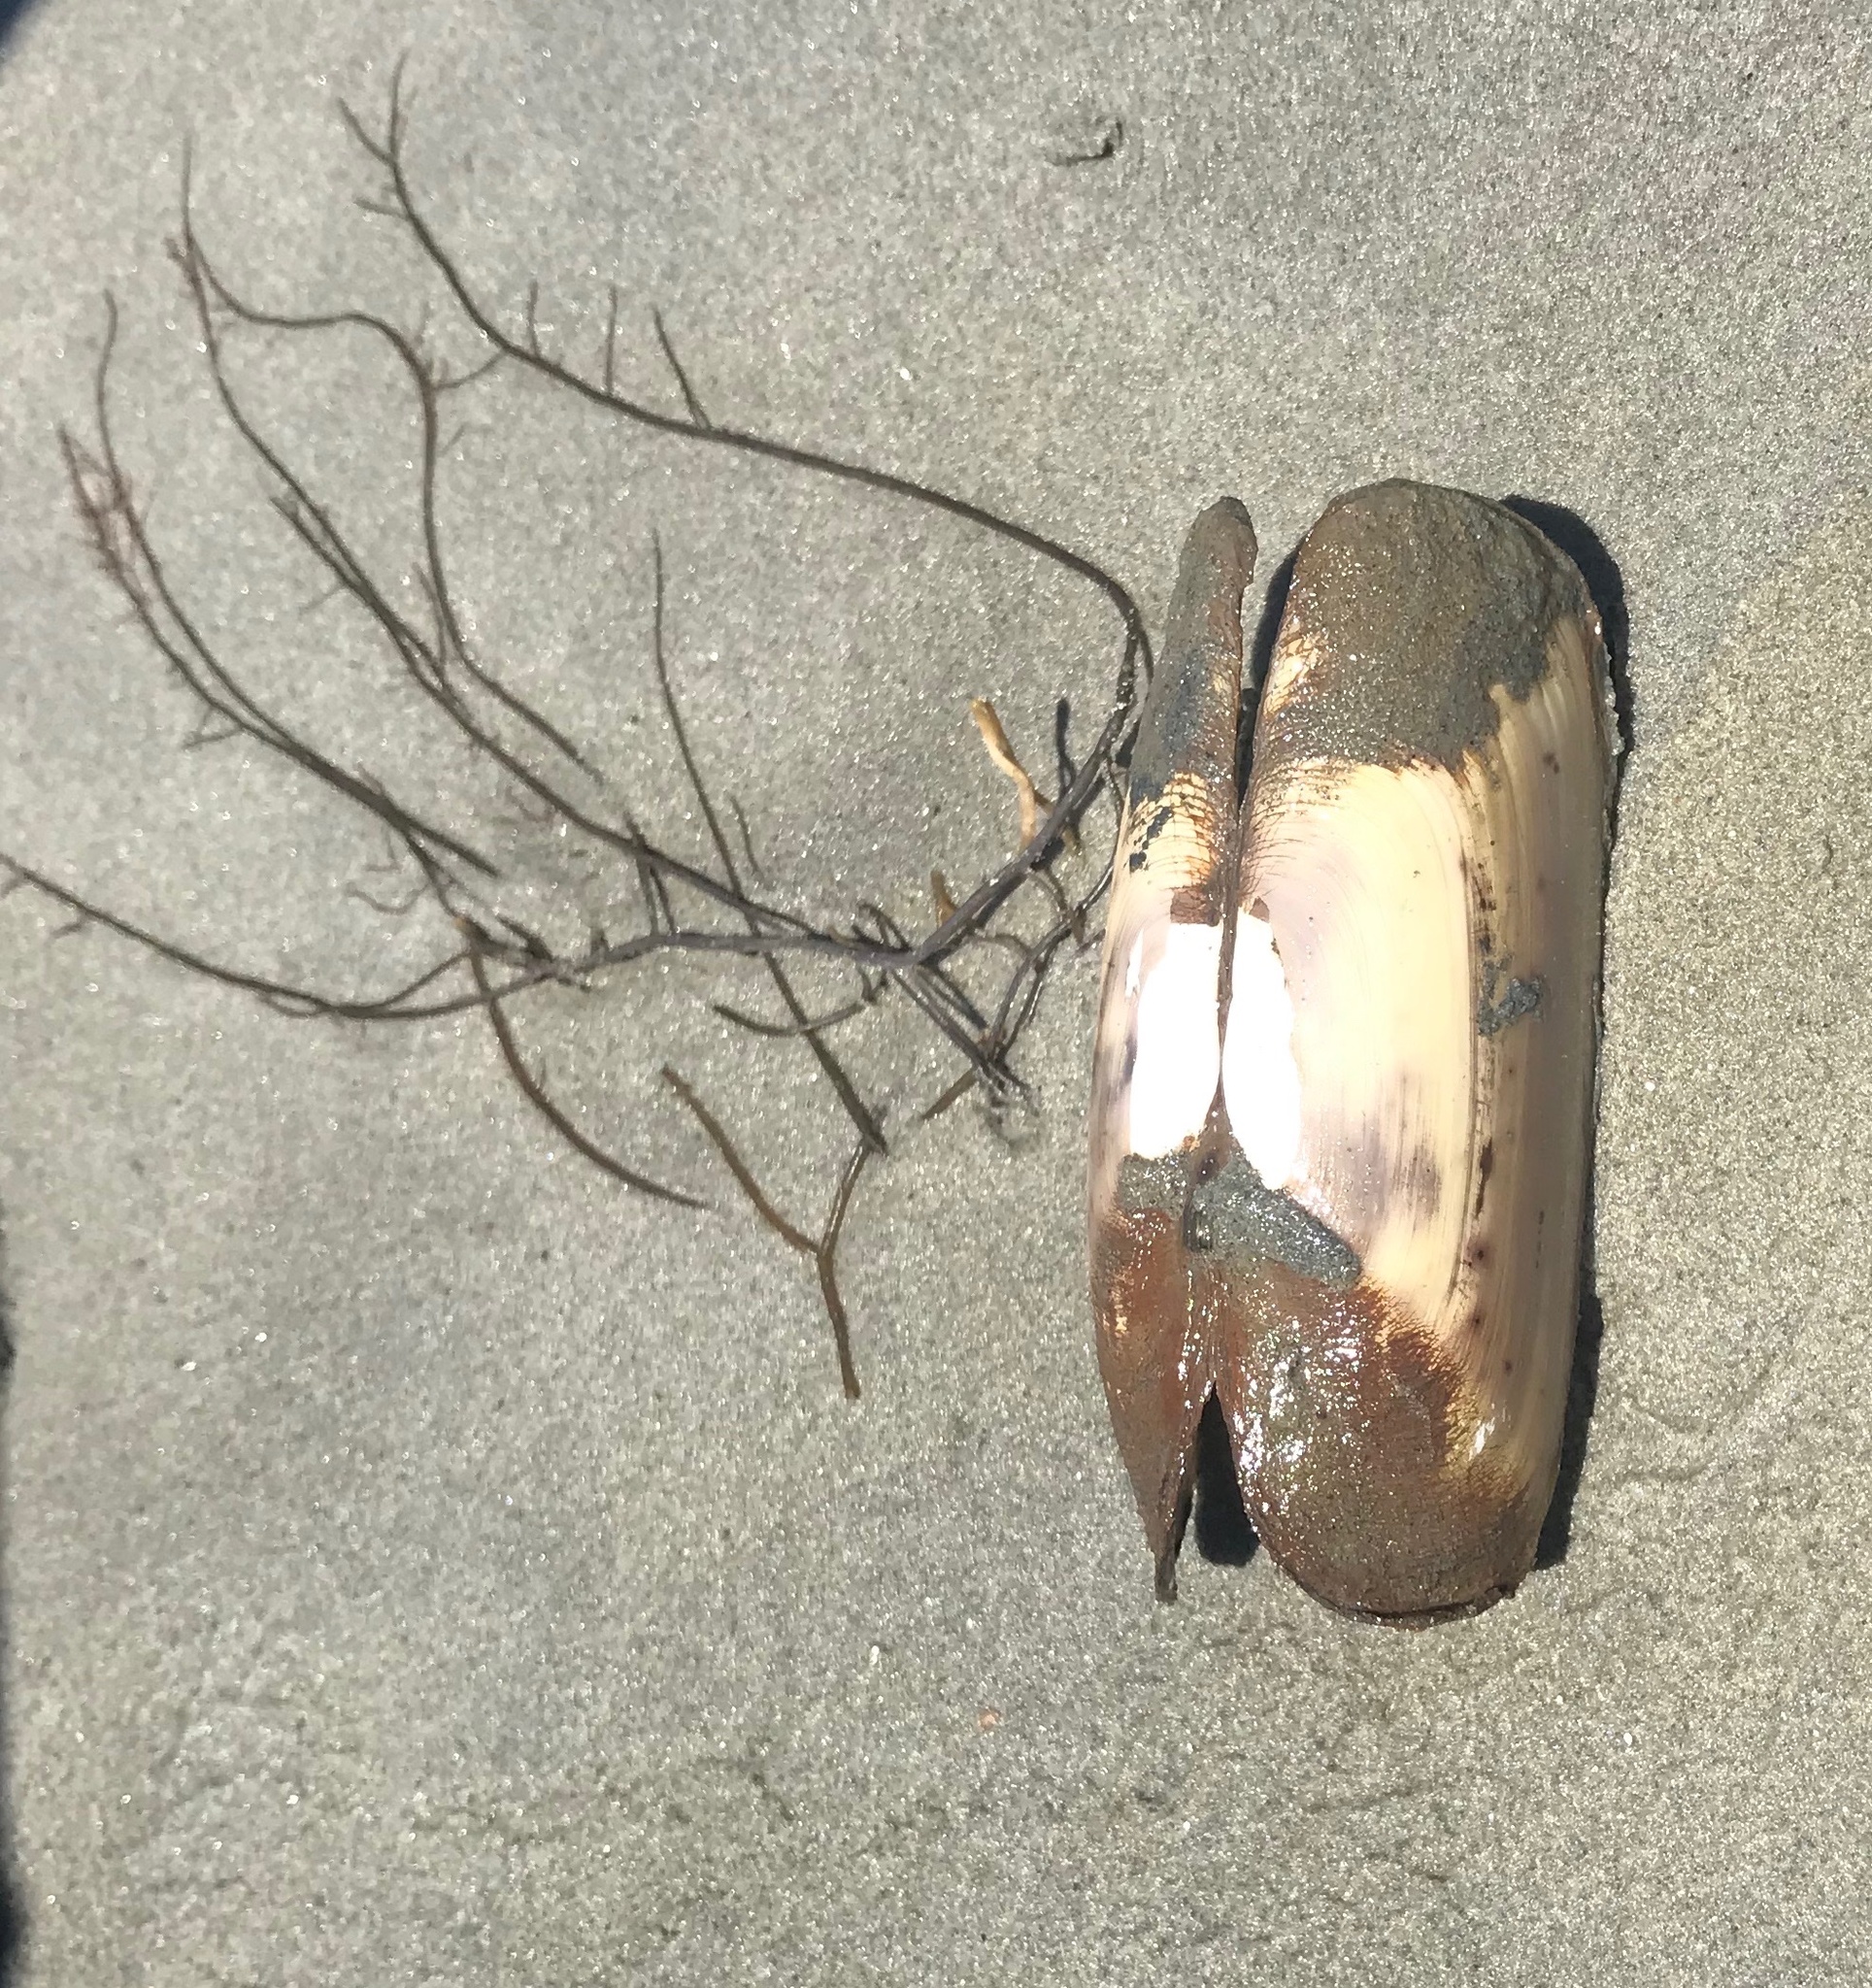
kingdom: Animalia
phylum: Mollusca
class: Bivalvia
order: Cardiida
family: Solecurtidae
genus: Tagelus
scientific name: Tagelus plebeius
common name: Stout tagelus
